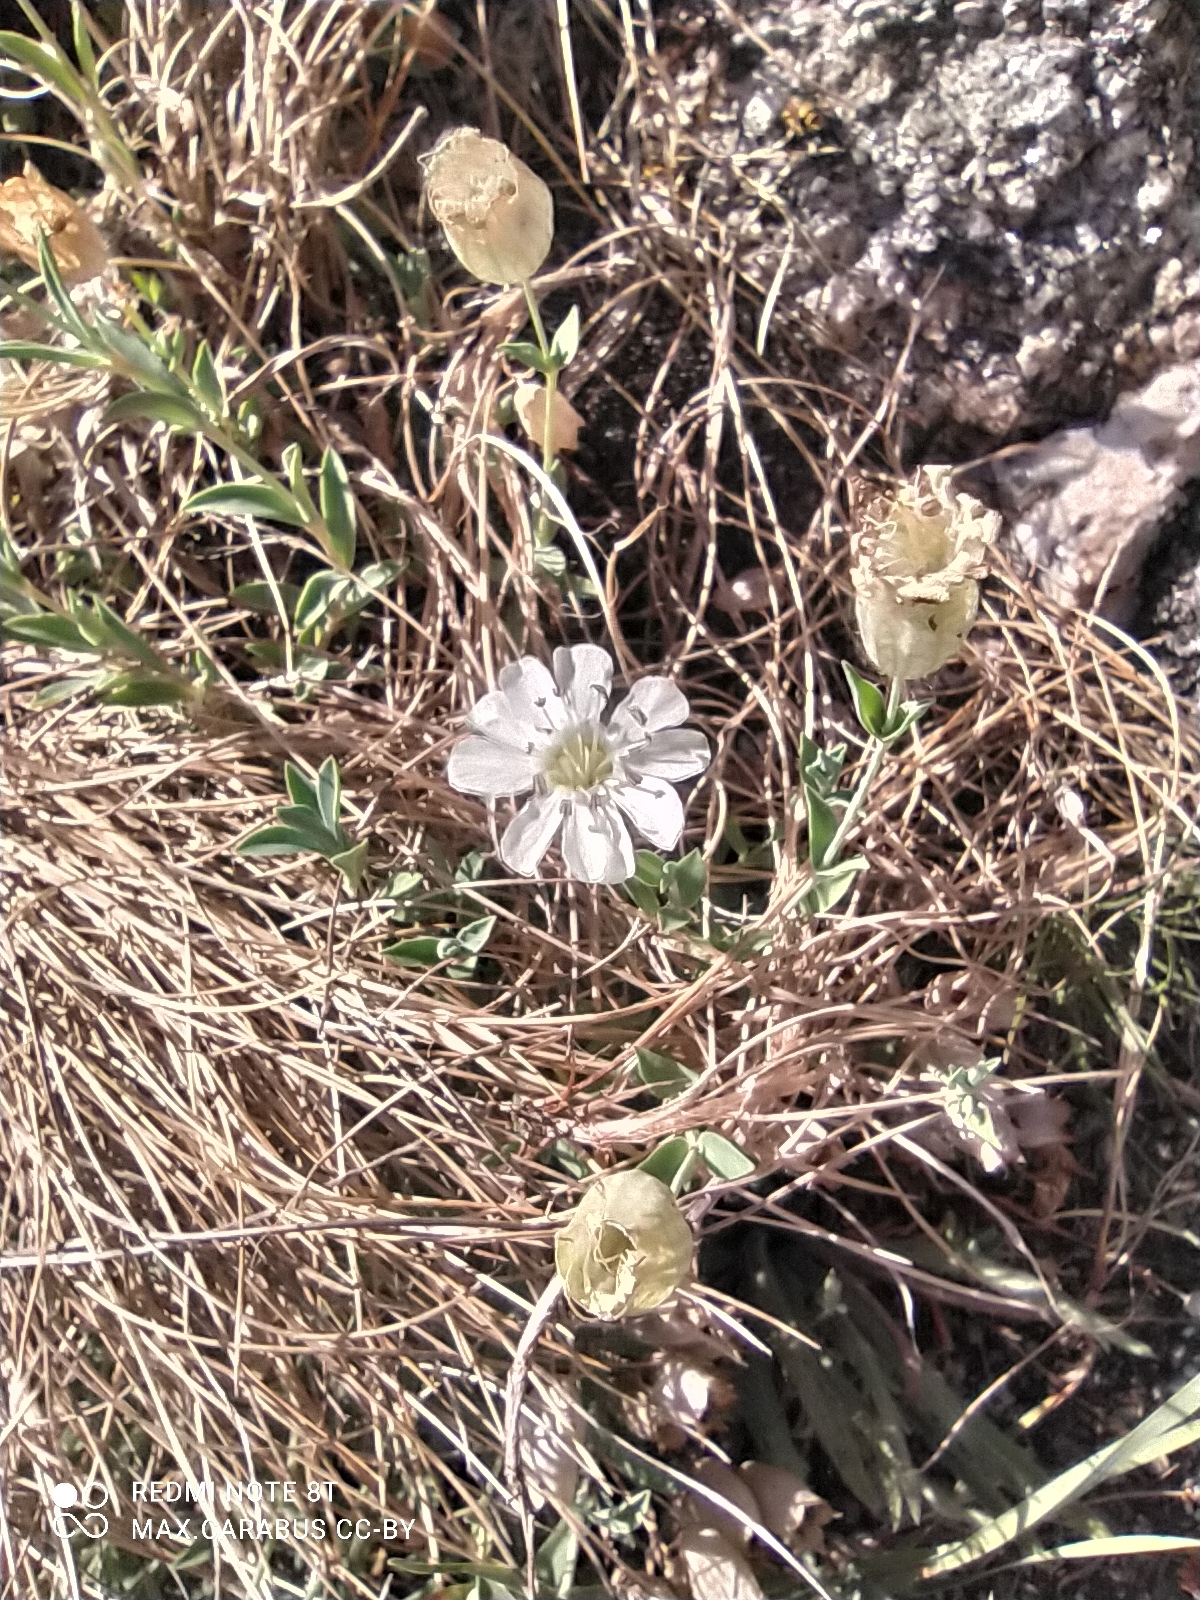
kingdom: Plantae
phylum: Tracheophyta
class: Magnoliopsida
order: Caryophyllales
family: Caryophyllaceae
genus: Silene
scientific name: Silene uniflora
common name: Sea campion
